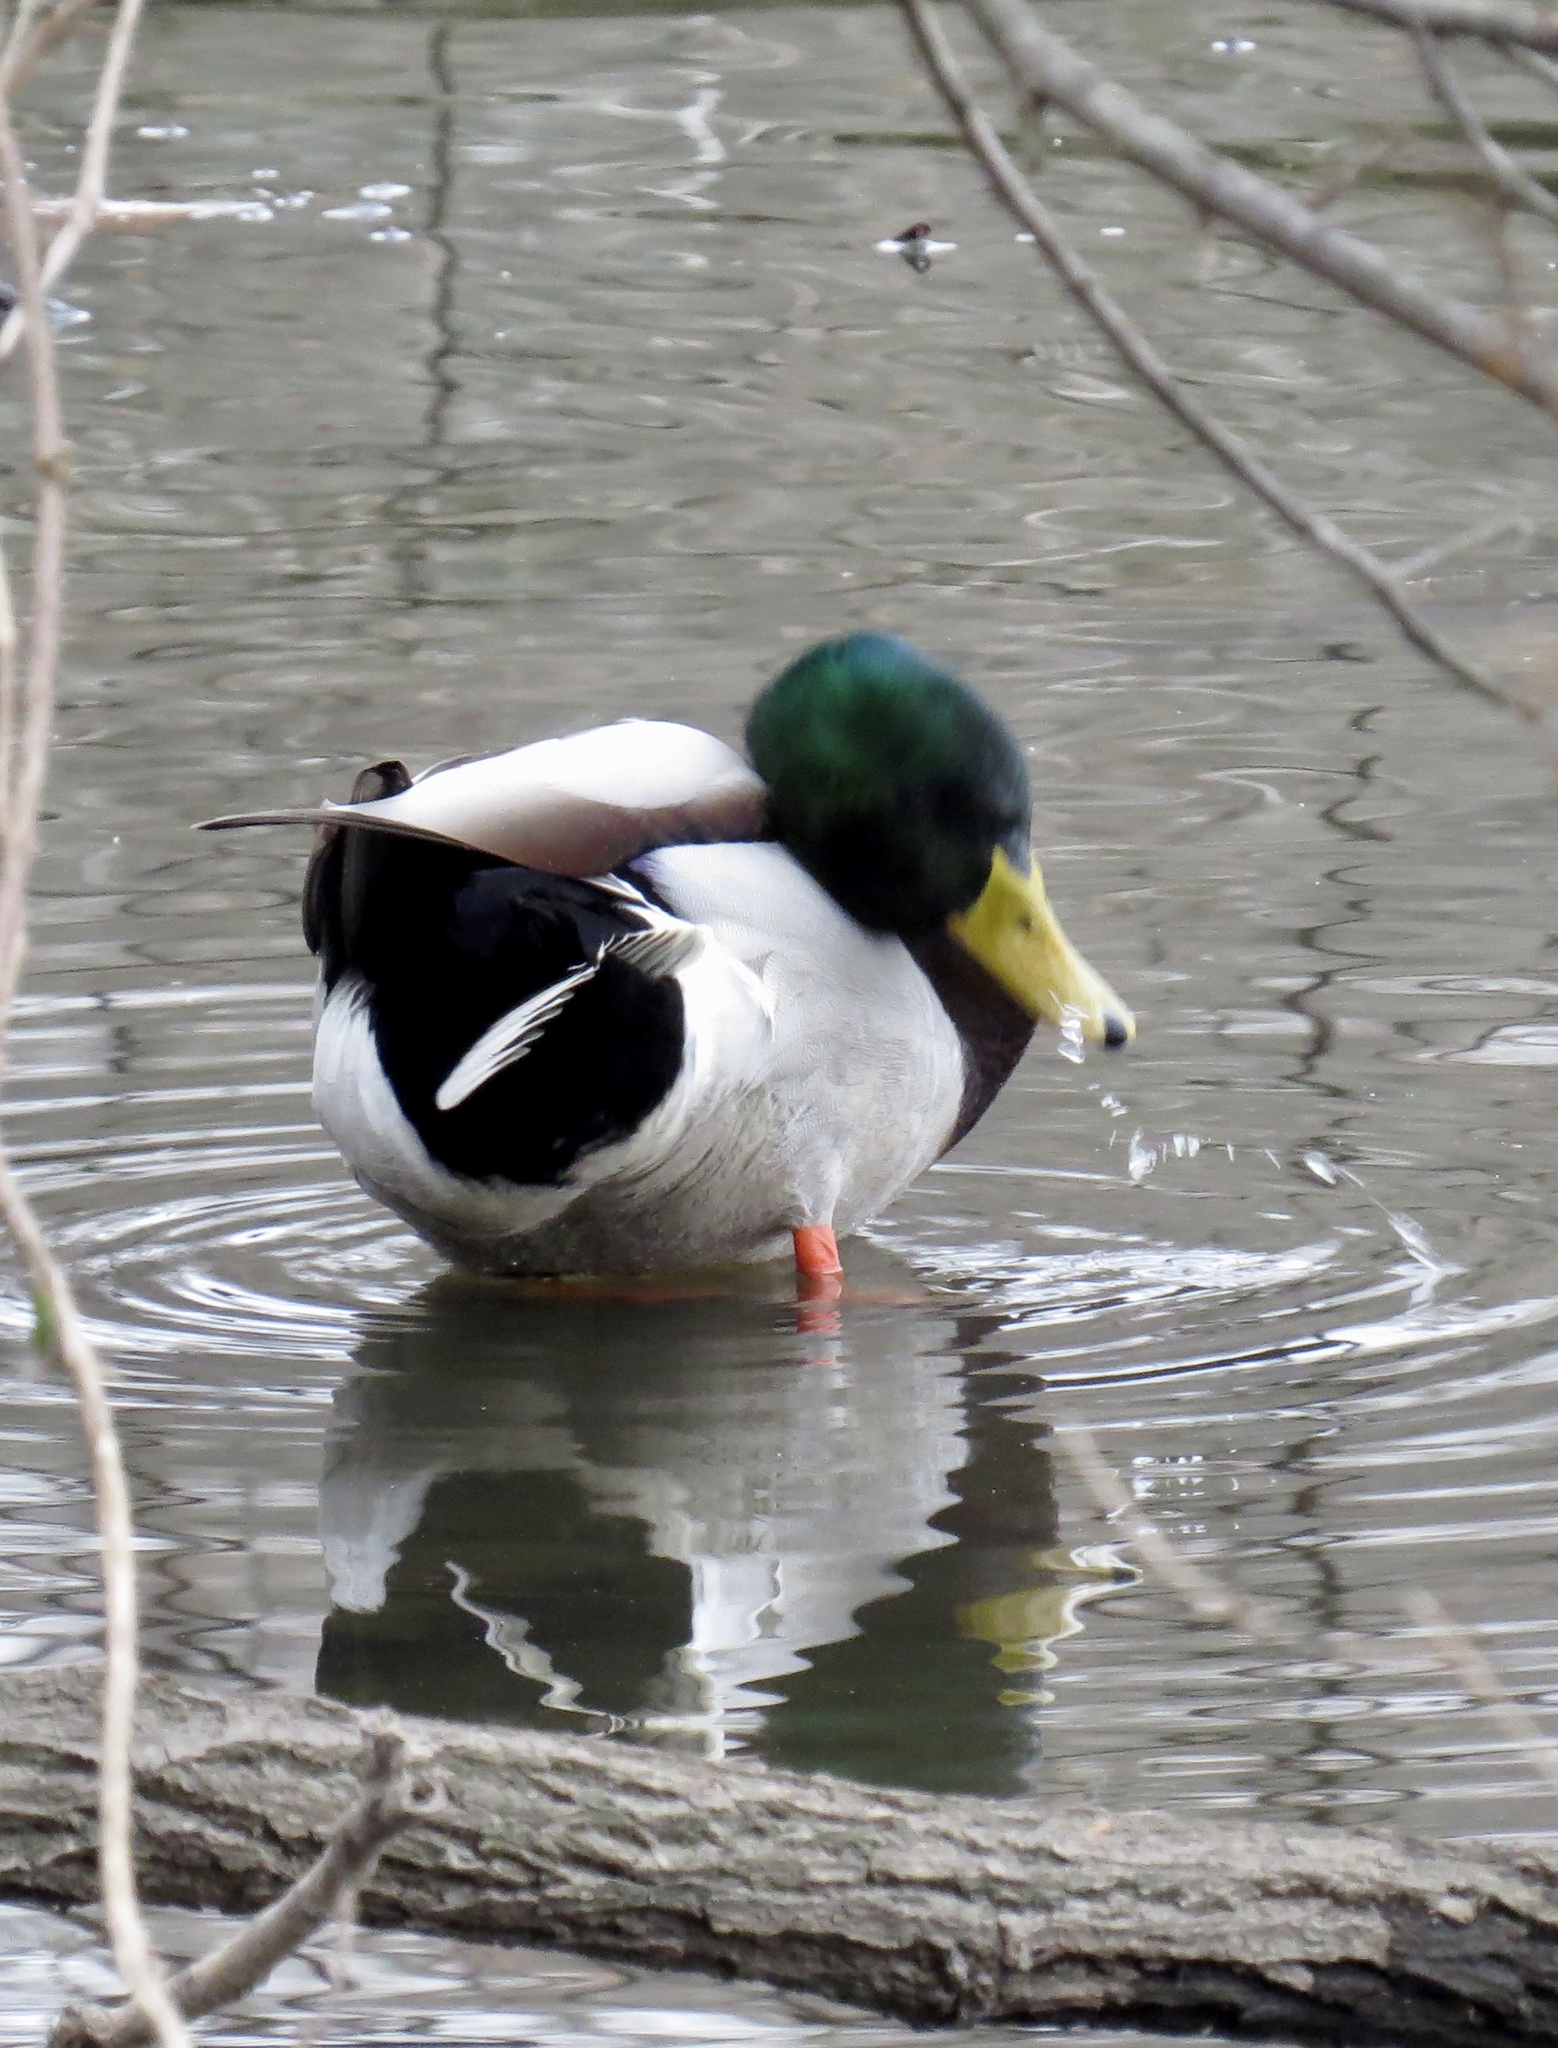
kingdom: Animalia
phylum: Chordata
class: Aves
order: Anseriformes
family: Anatidae
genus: Anas
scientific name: Anas platyrhynchos
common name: Mallard
